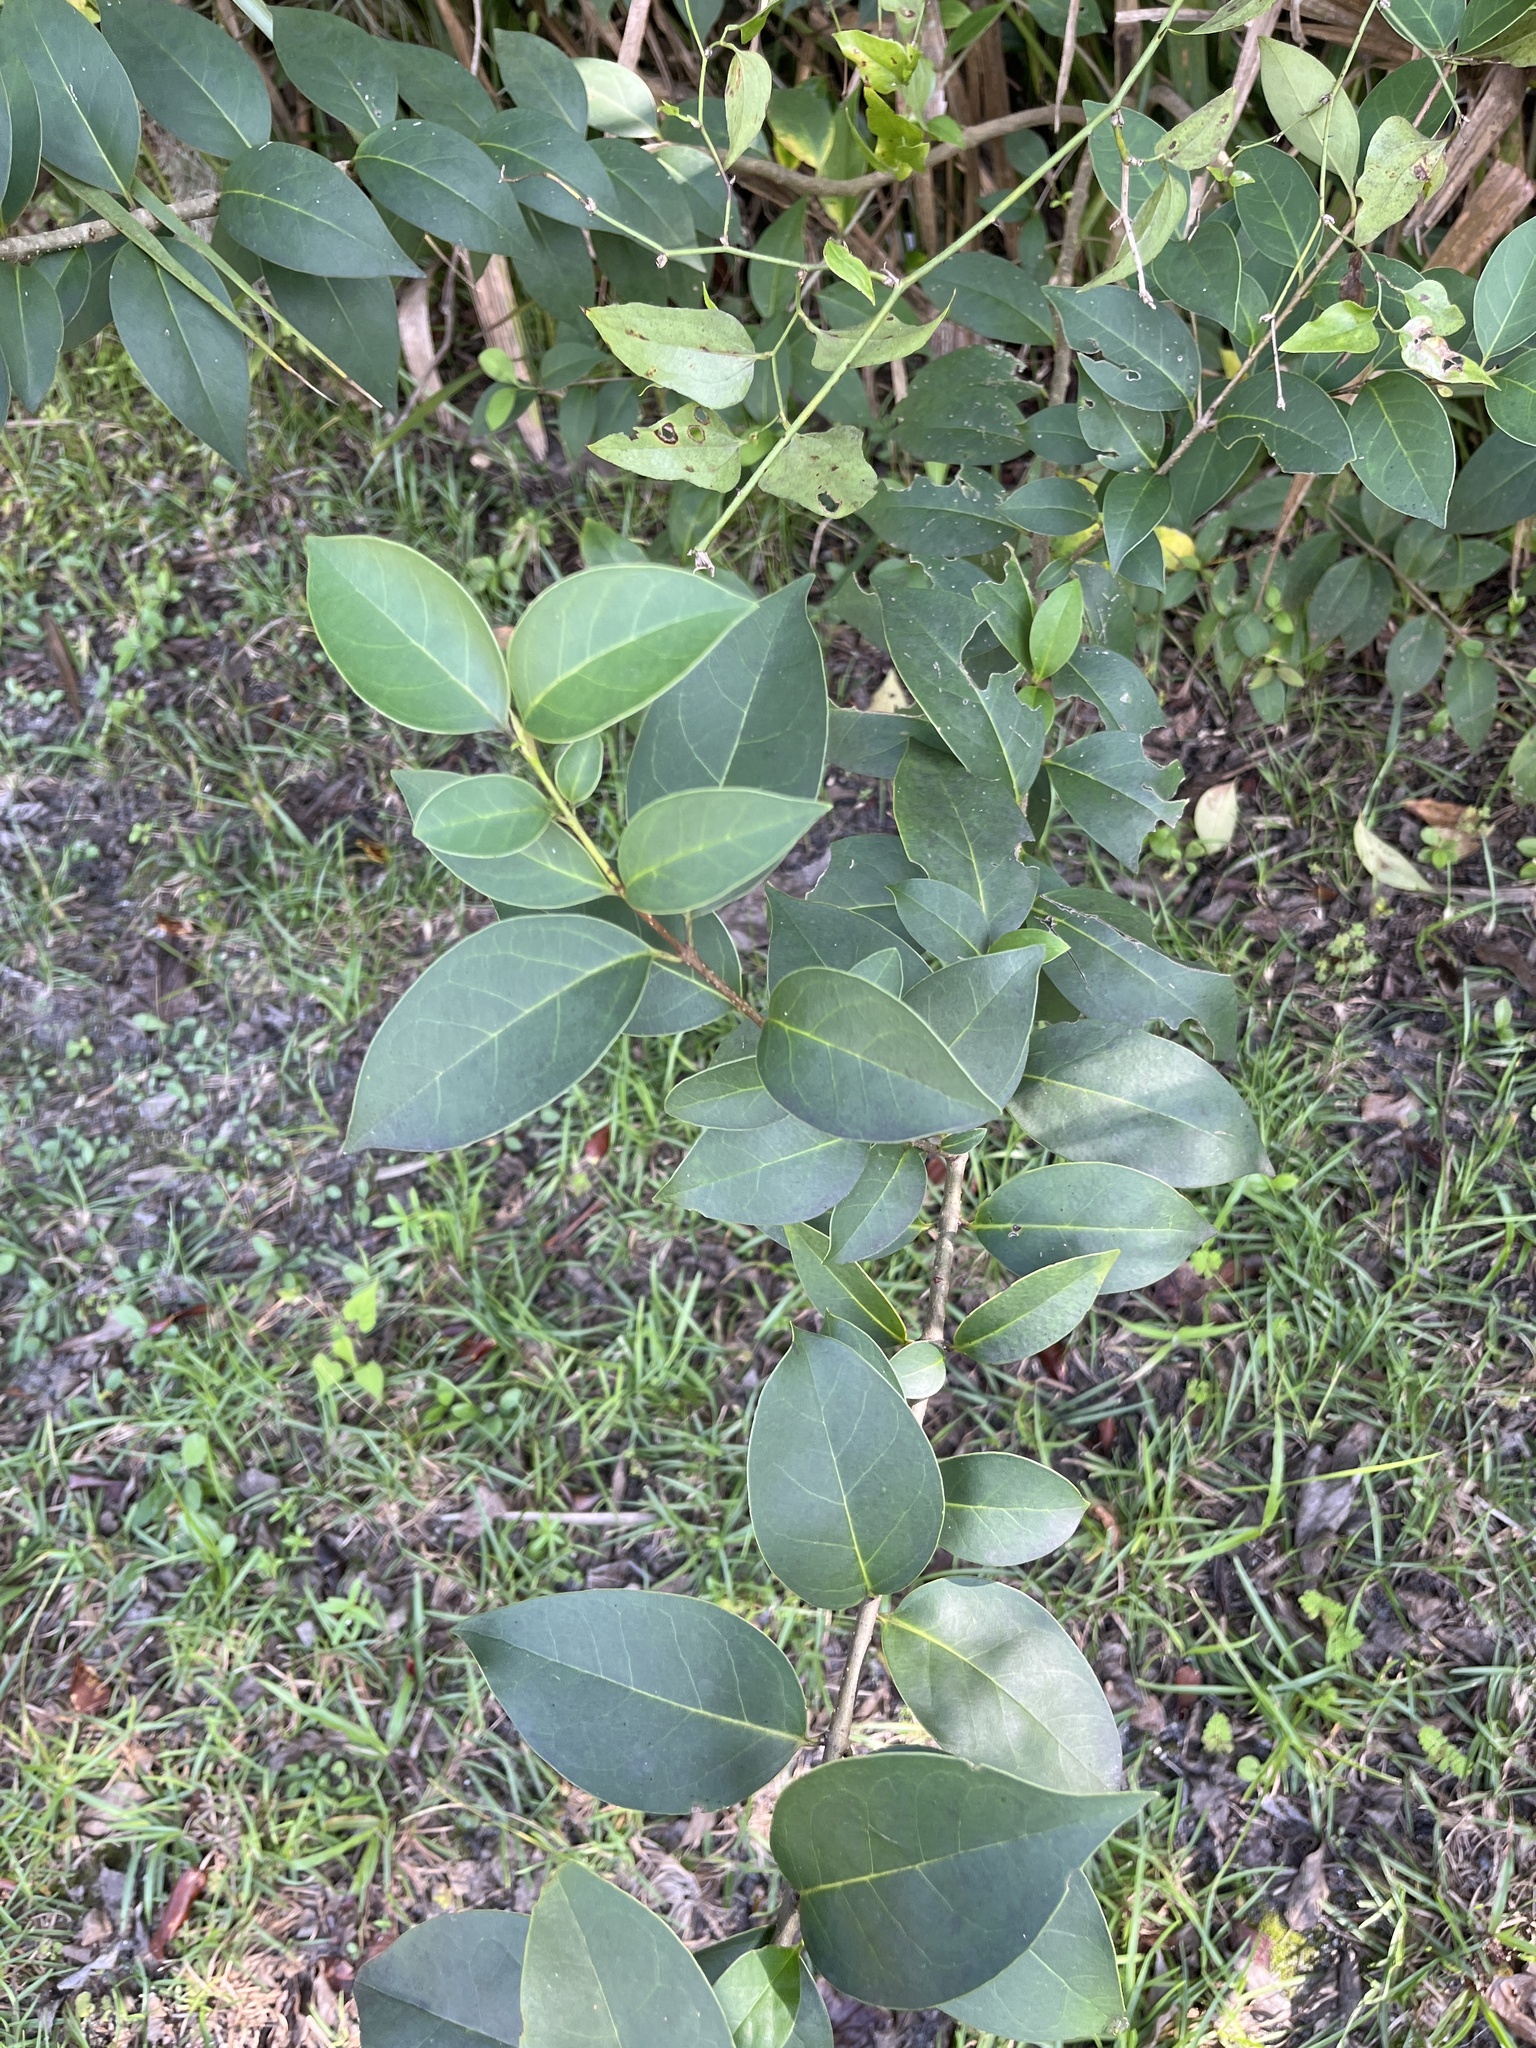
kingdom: Plantae
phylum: Tracheophyta
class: Magnoliopsida
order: Lamiales
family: Oleaceae
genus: Ligustrum
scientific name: Ligustrum lucidum
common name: Glossy privet
